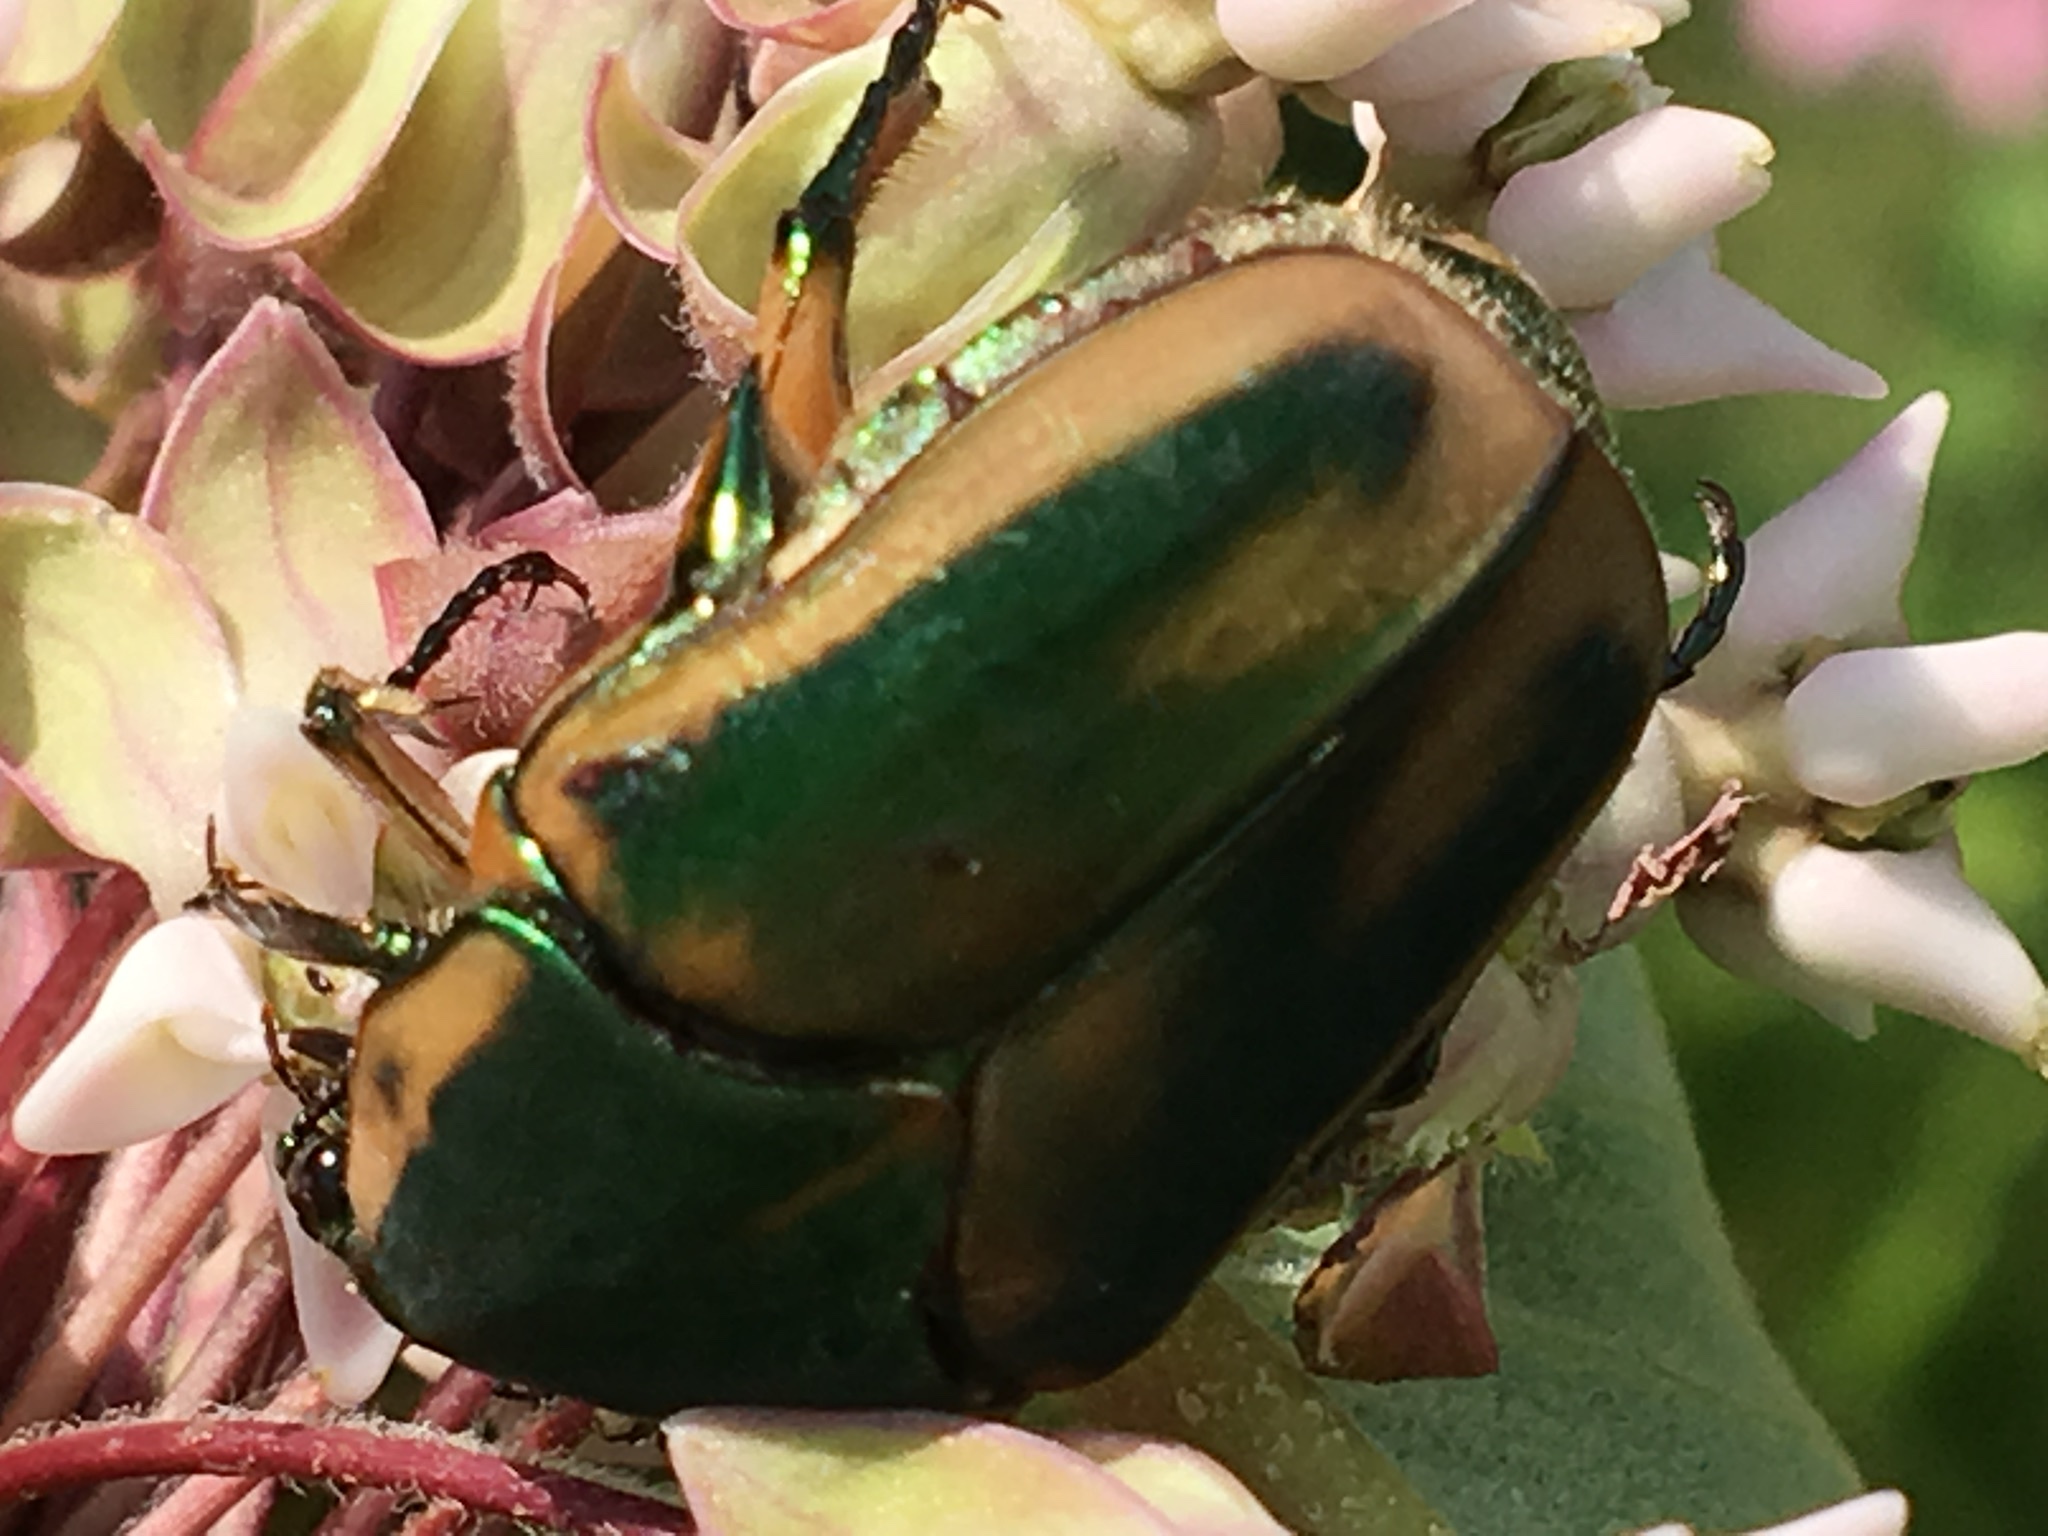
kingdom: Animalia
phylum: Arthropoda
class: Insecta
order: Coleoptera
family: Scarabaeidae
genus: Cotinis
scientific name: Cotinis nitida
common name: Common green june beetle
